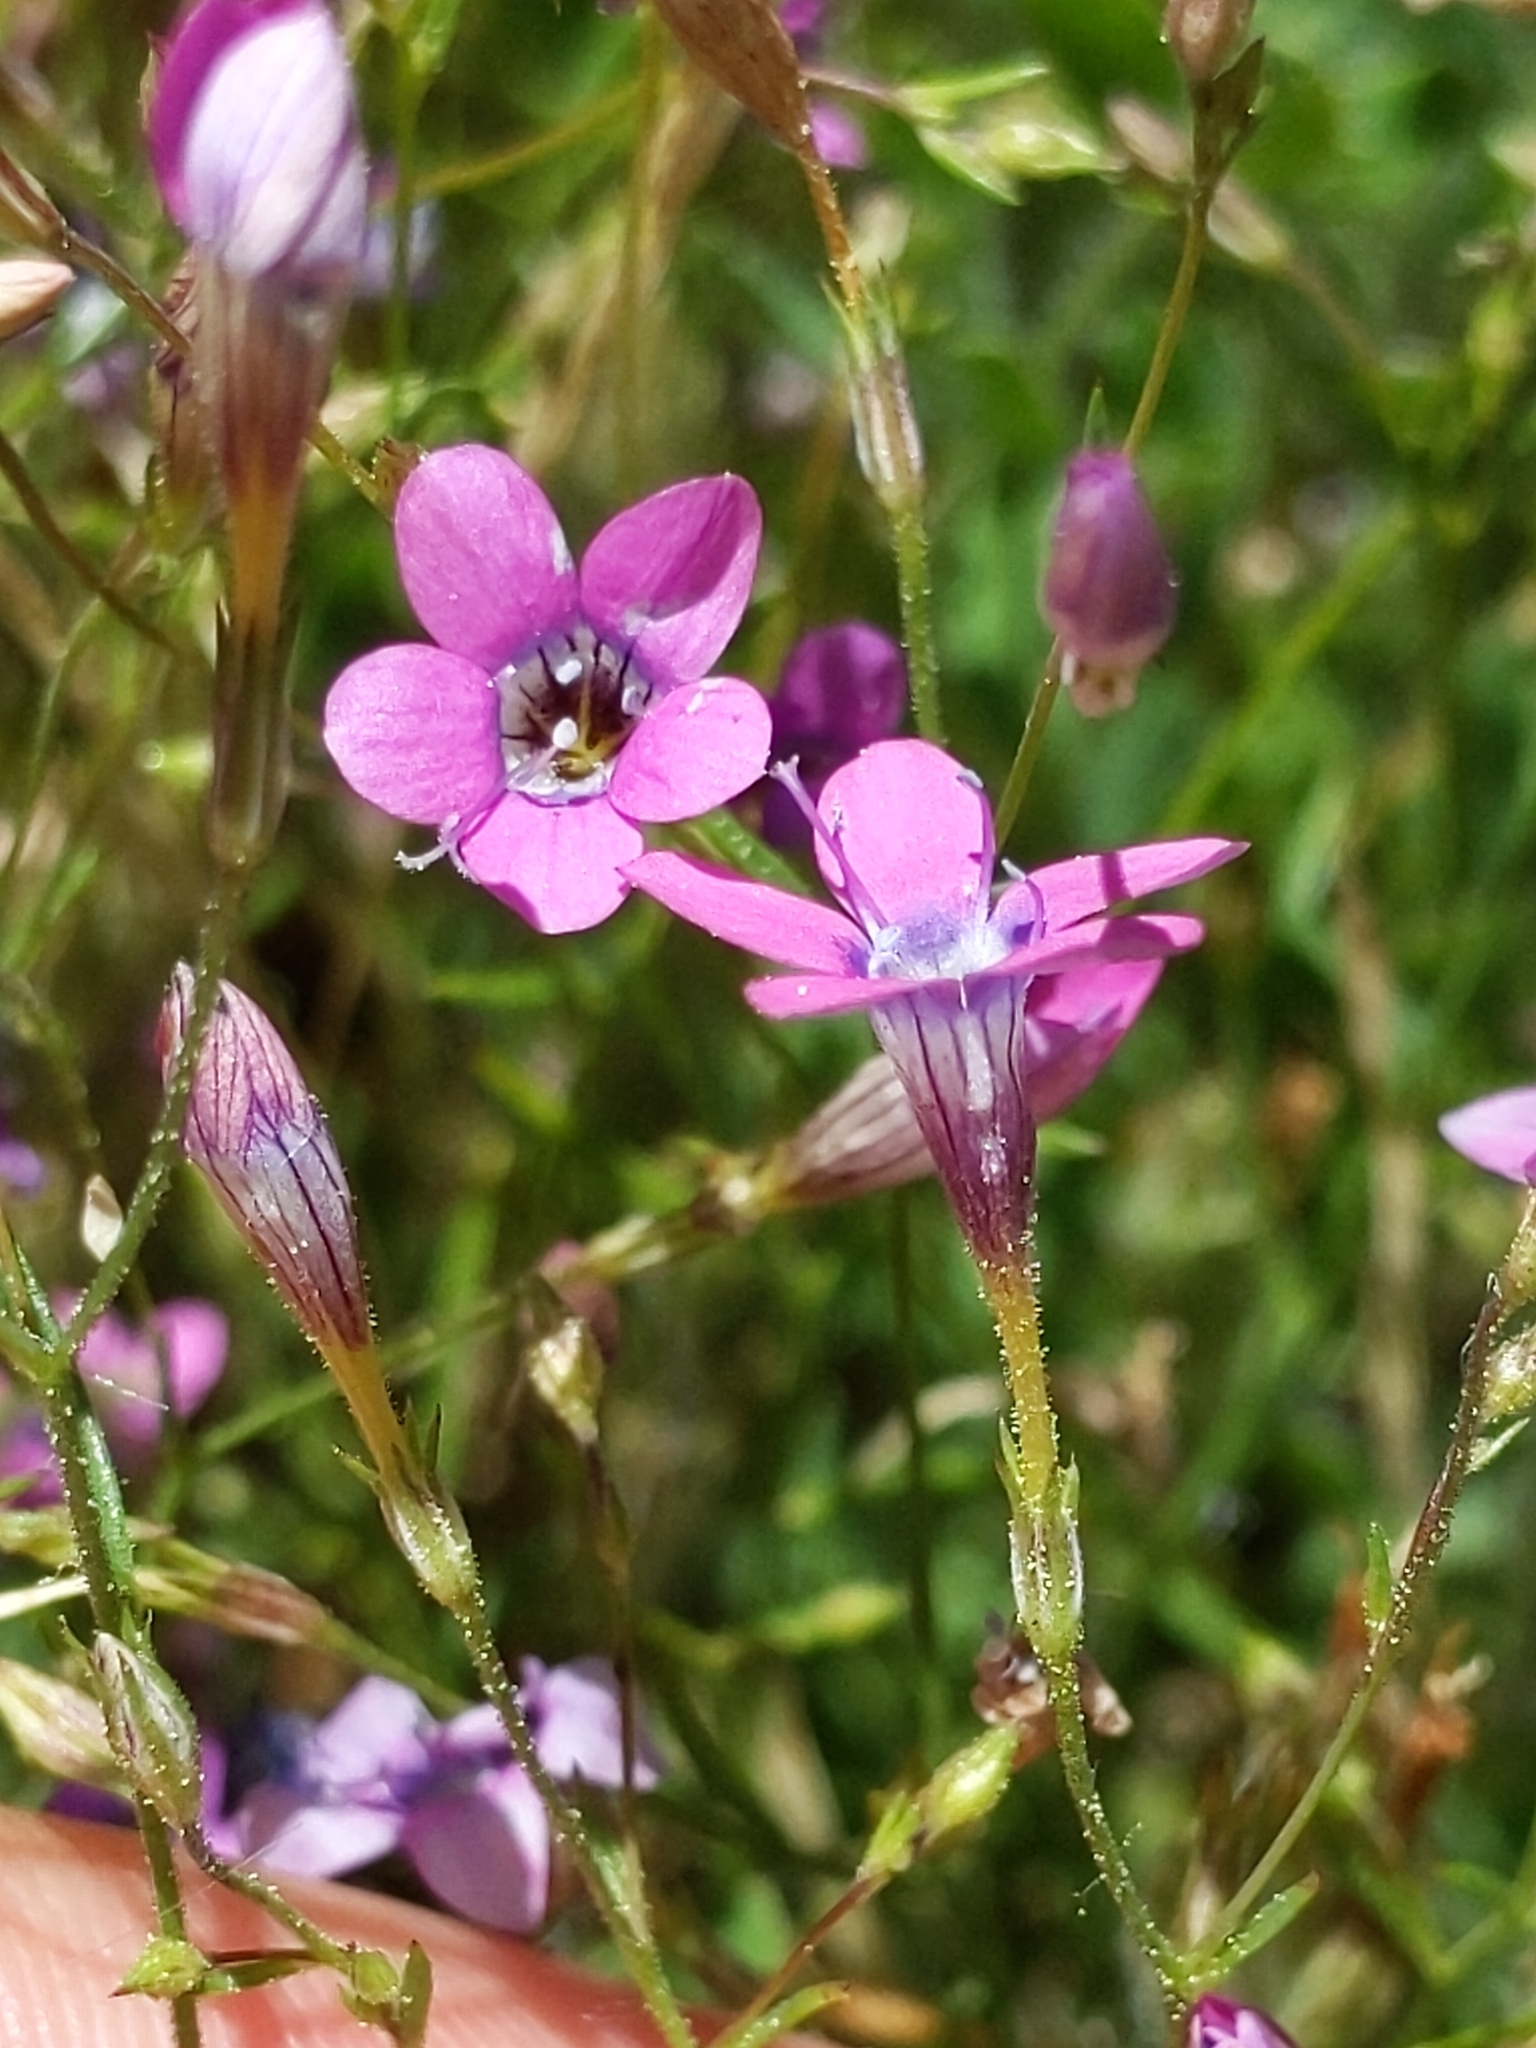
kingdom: Plantae
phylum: Tracheophyta
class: Magnoliopsida
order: Ericales
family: Polemoniaceae
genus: Navarretia
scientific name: Navarretia leptalea
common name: Bridges' pincushionplant
